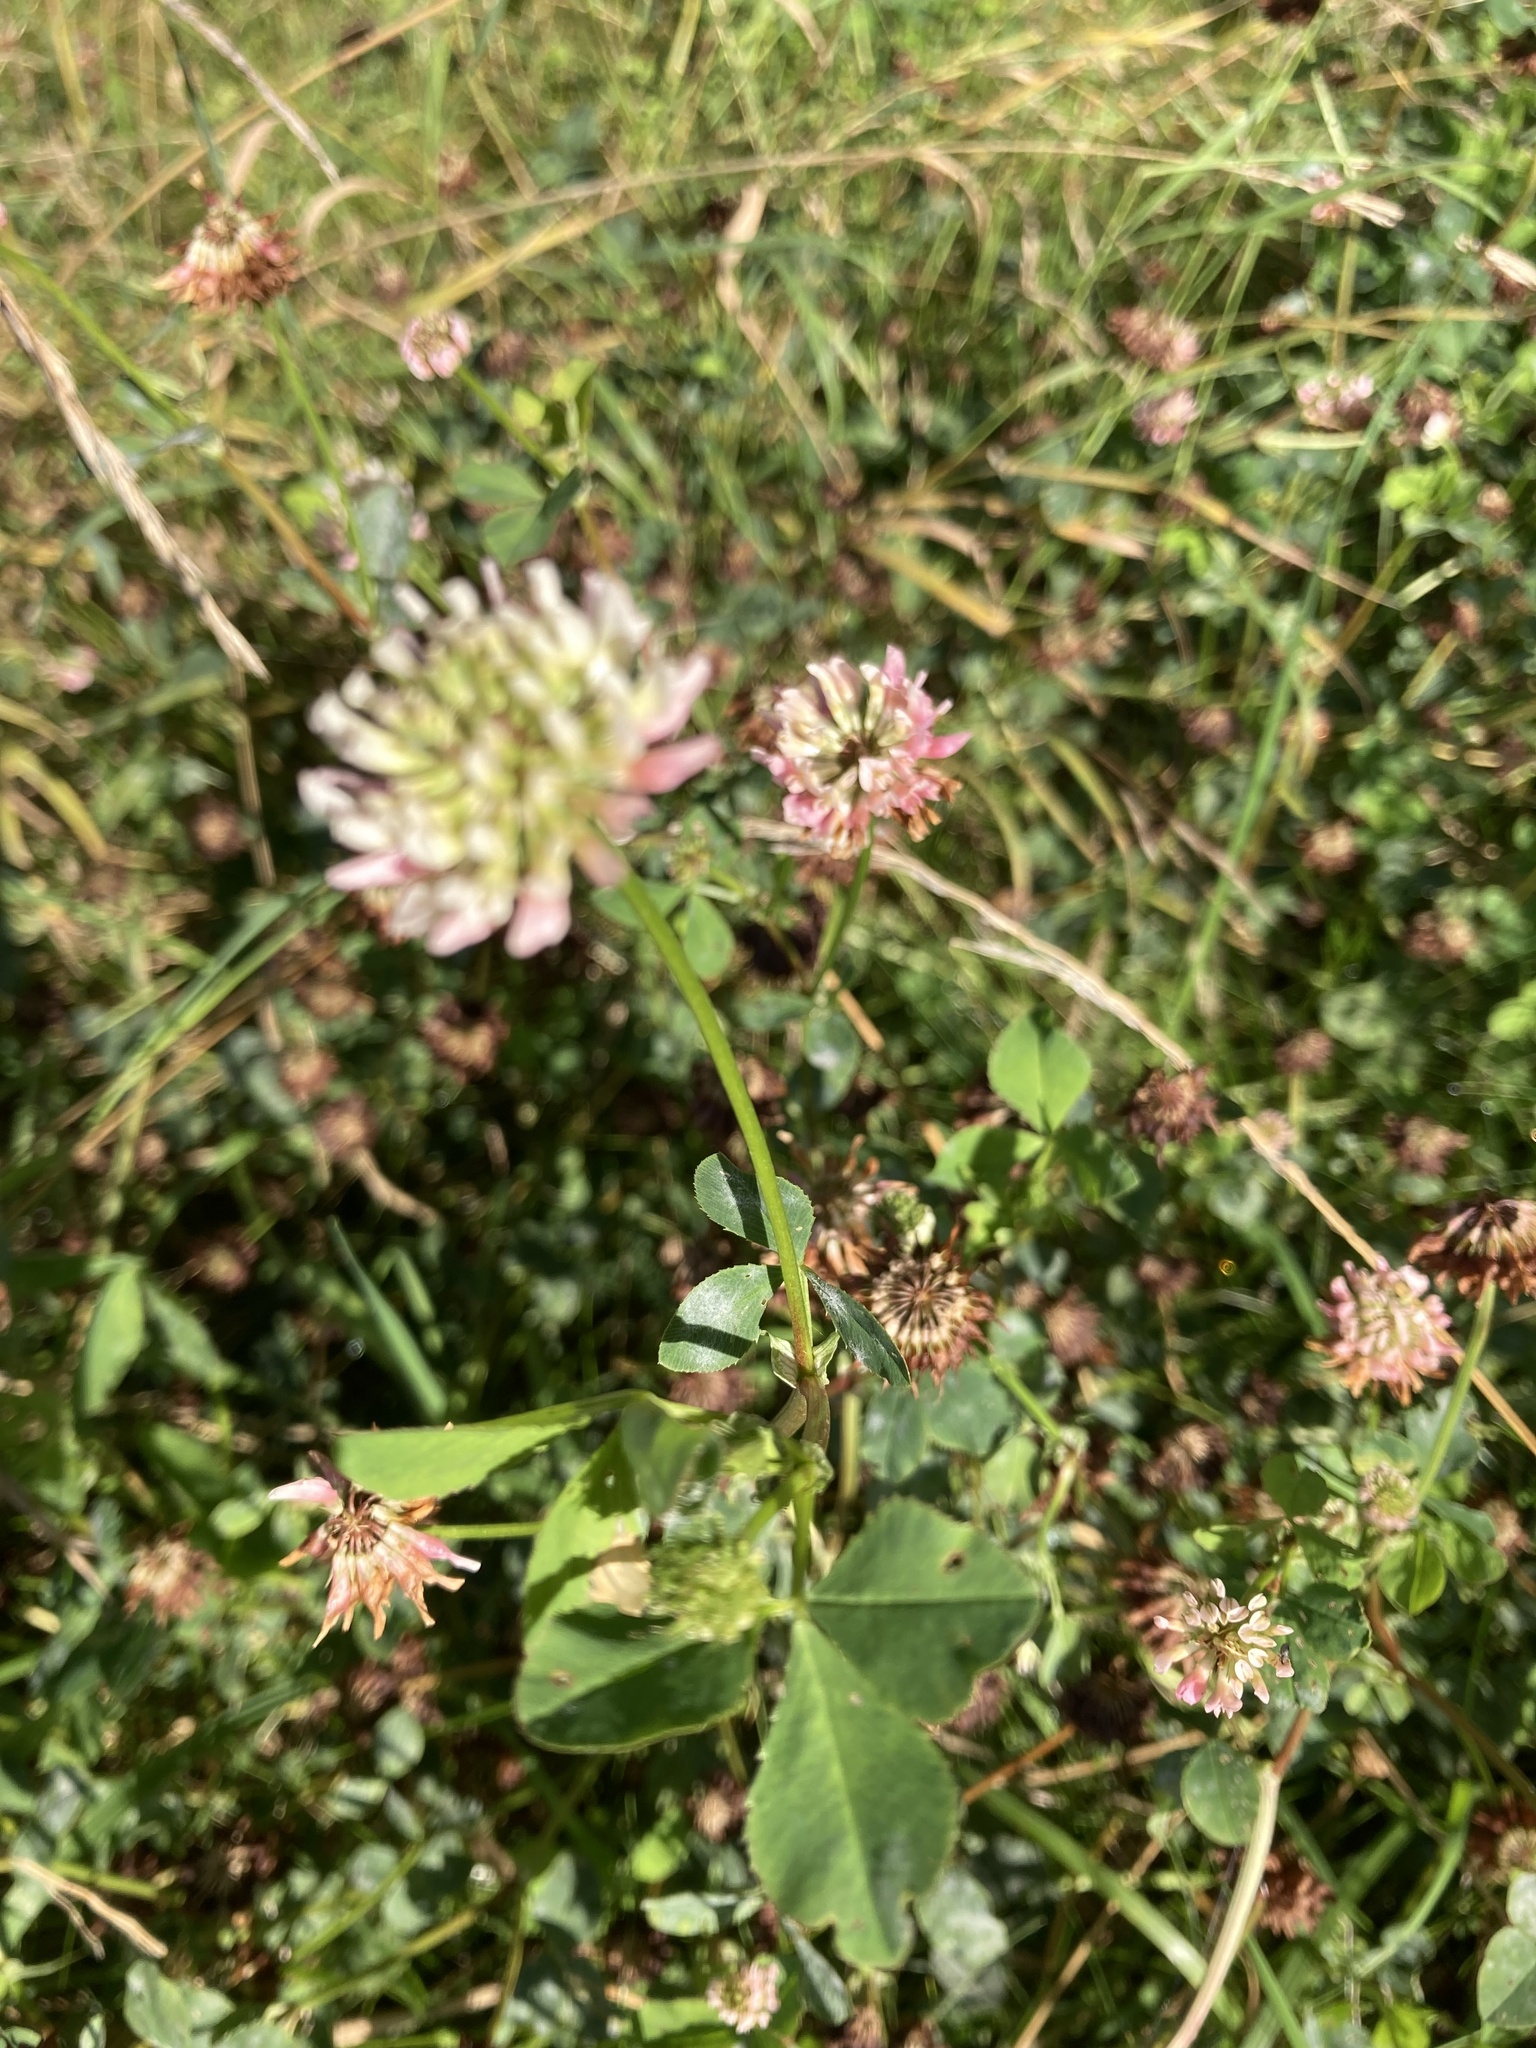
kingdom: Plantae
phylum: Tracheophyta
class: Magnoliopsida
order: Fabales
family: Fabaceae
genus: Trifolium
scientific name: Trifolium hybridum
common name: Alsike clover
